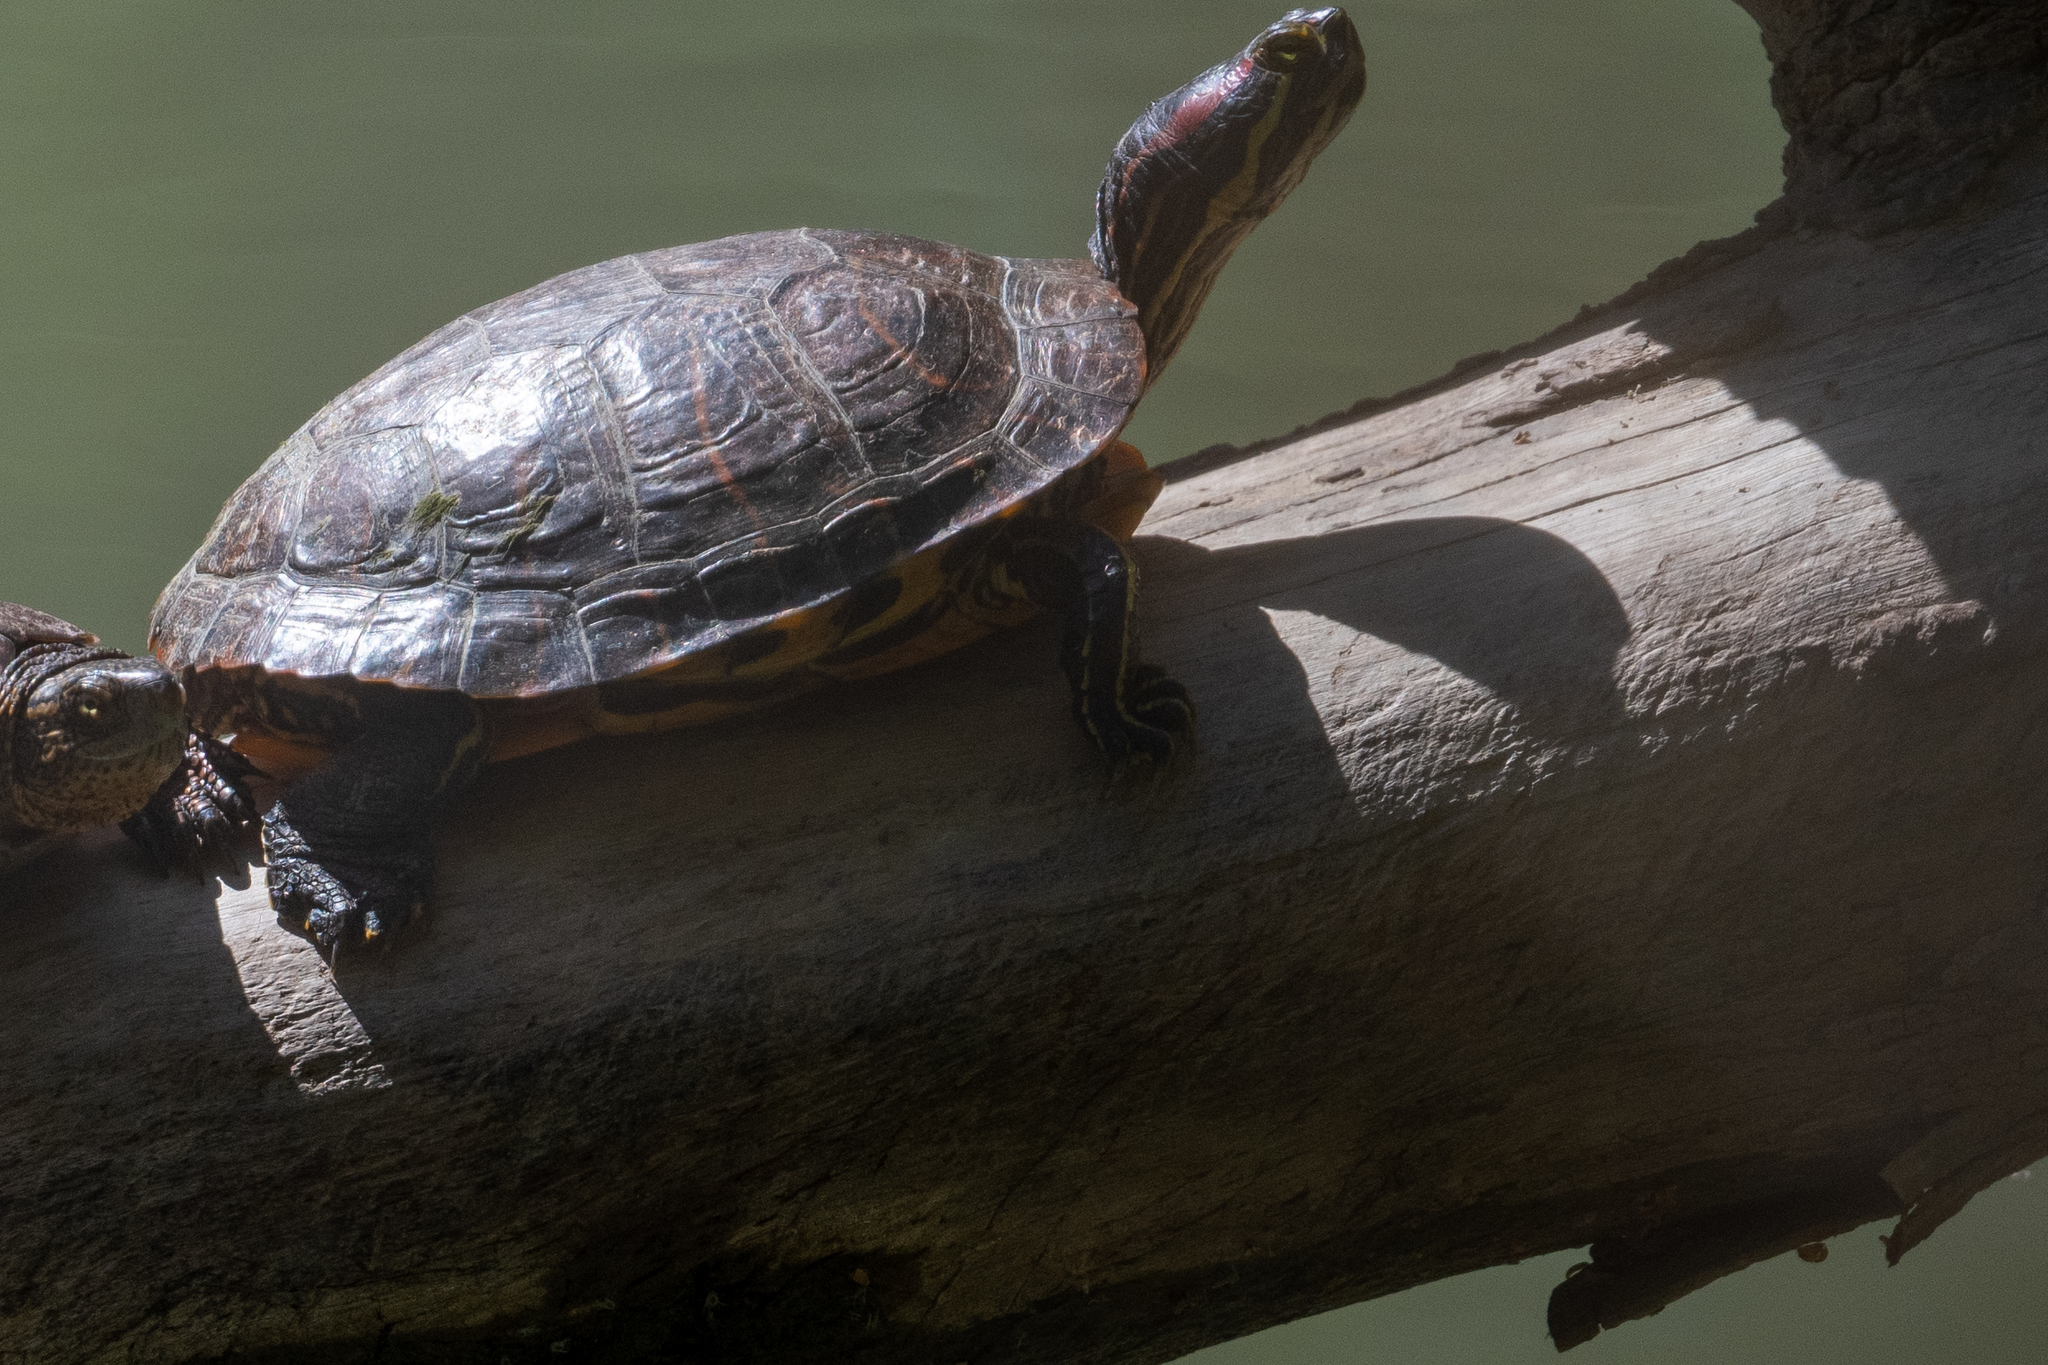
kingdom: Animalia
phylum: Chordata
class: Testudines
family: Emydidae
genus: Trachemys
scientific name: Trachemys scripta
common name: Slider
